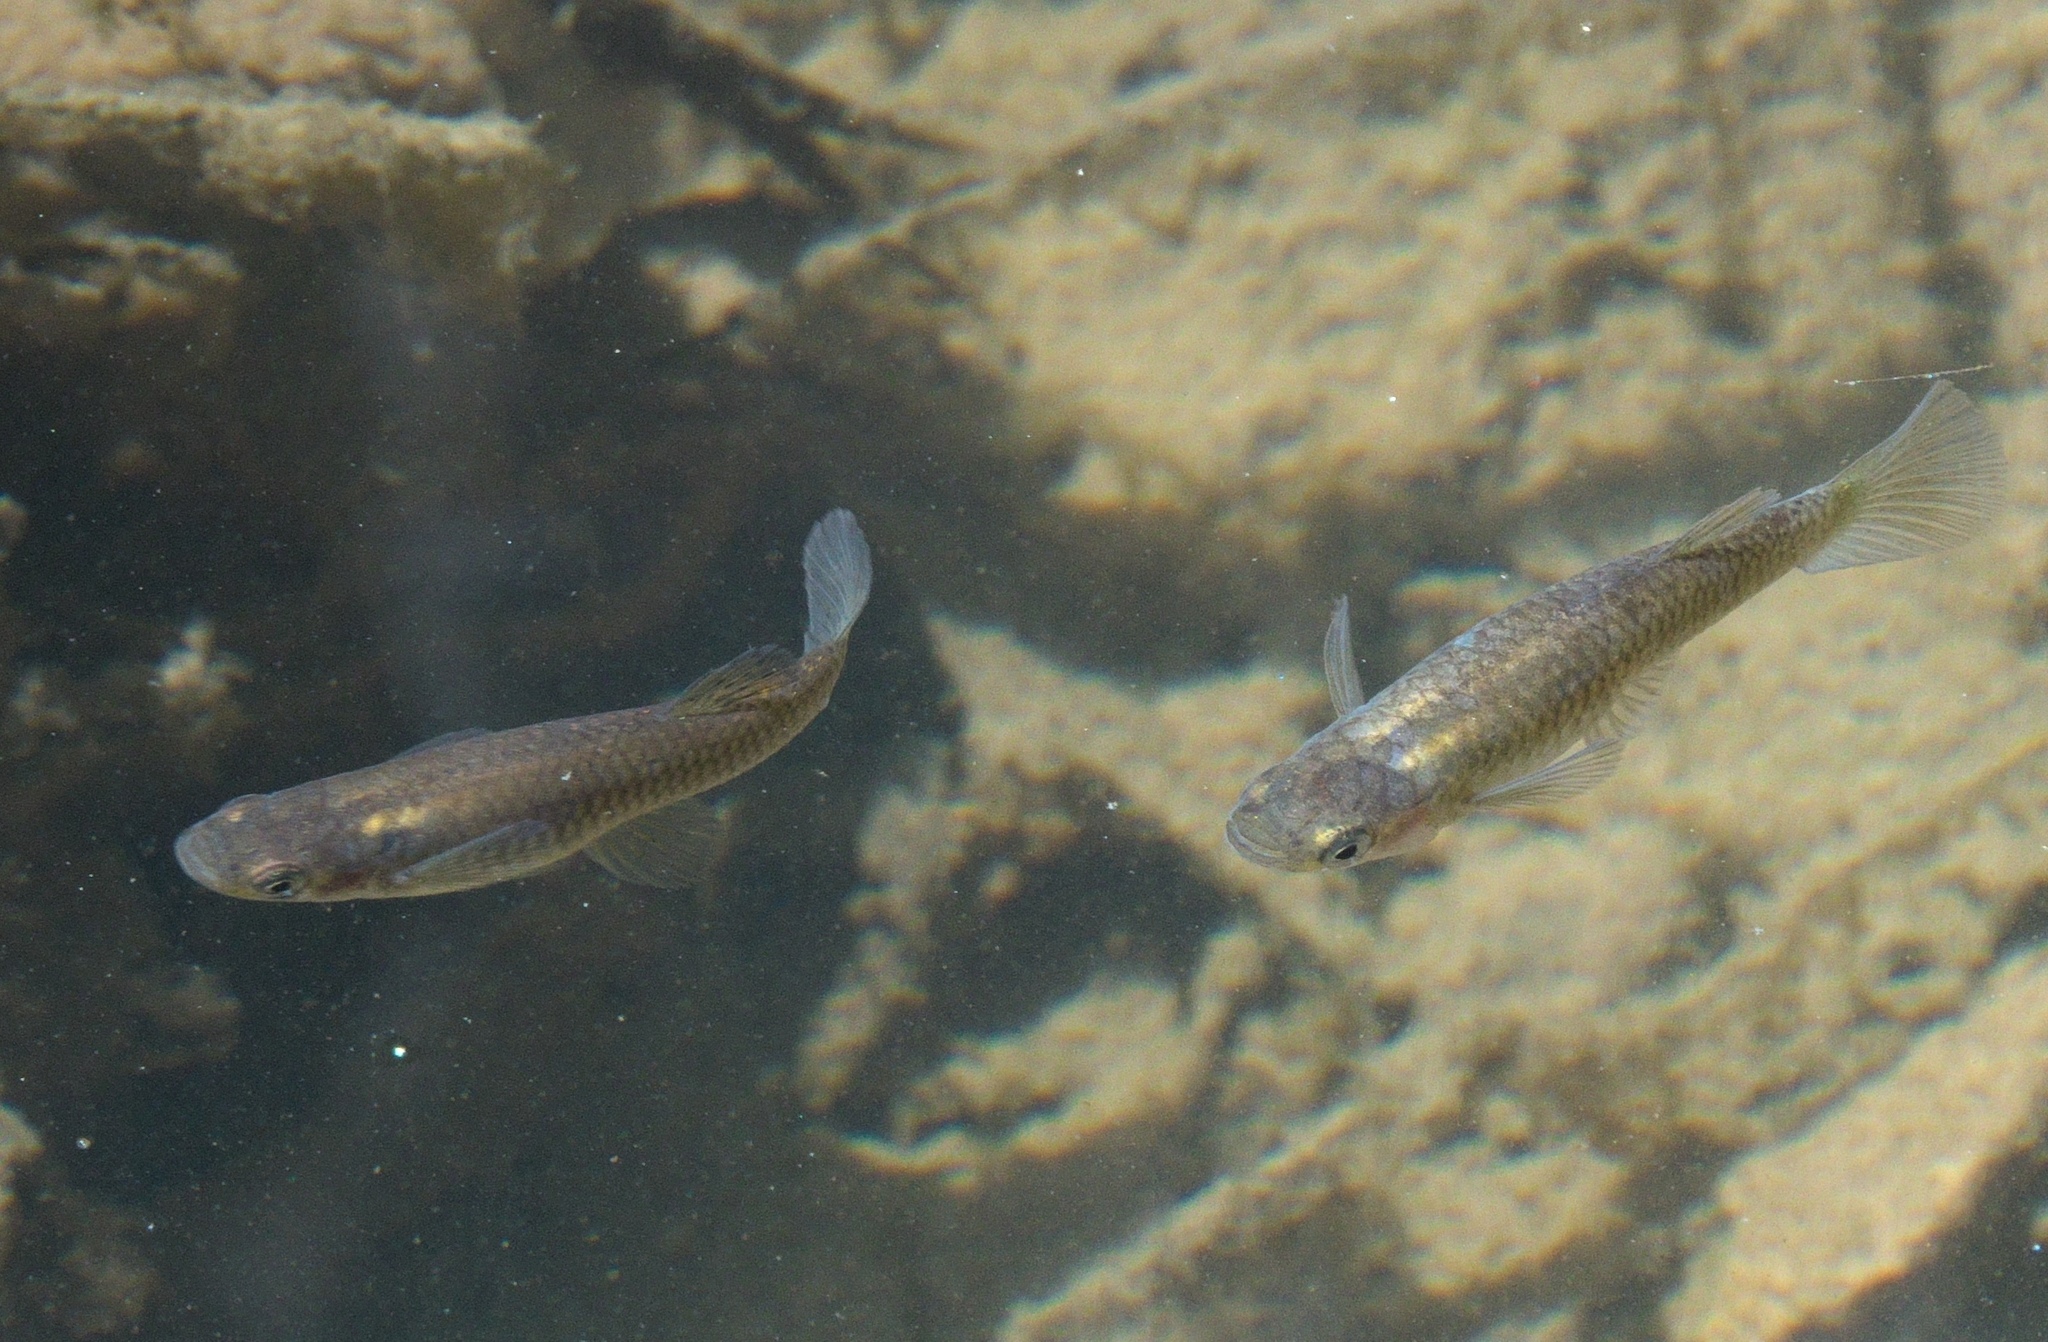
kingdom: Animalia
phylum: Chordata
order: Cyprinodontiformes
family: Poeciliidae
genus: Gambusia
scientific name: Gambusia affinis
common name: Mosquitofish
